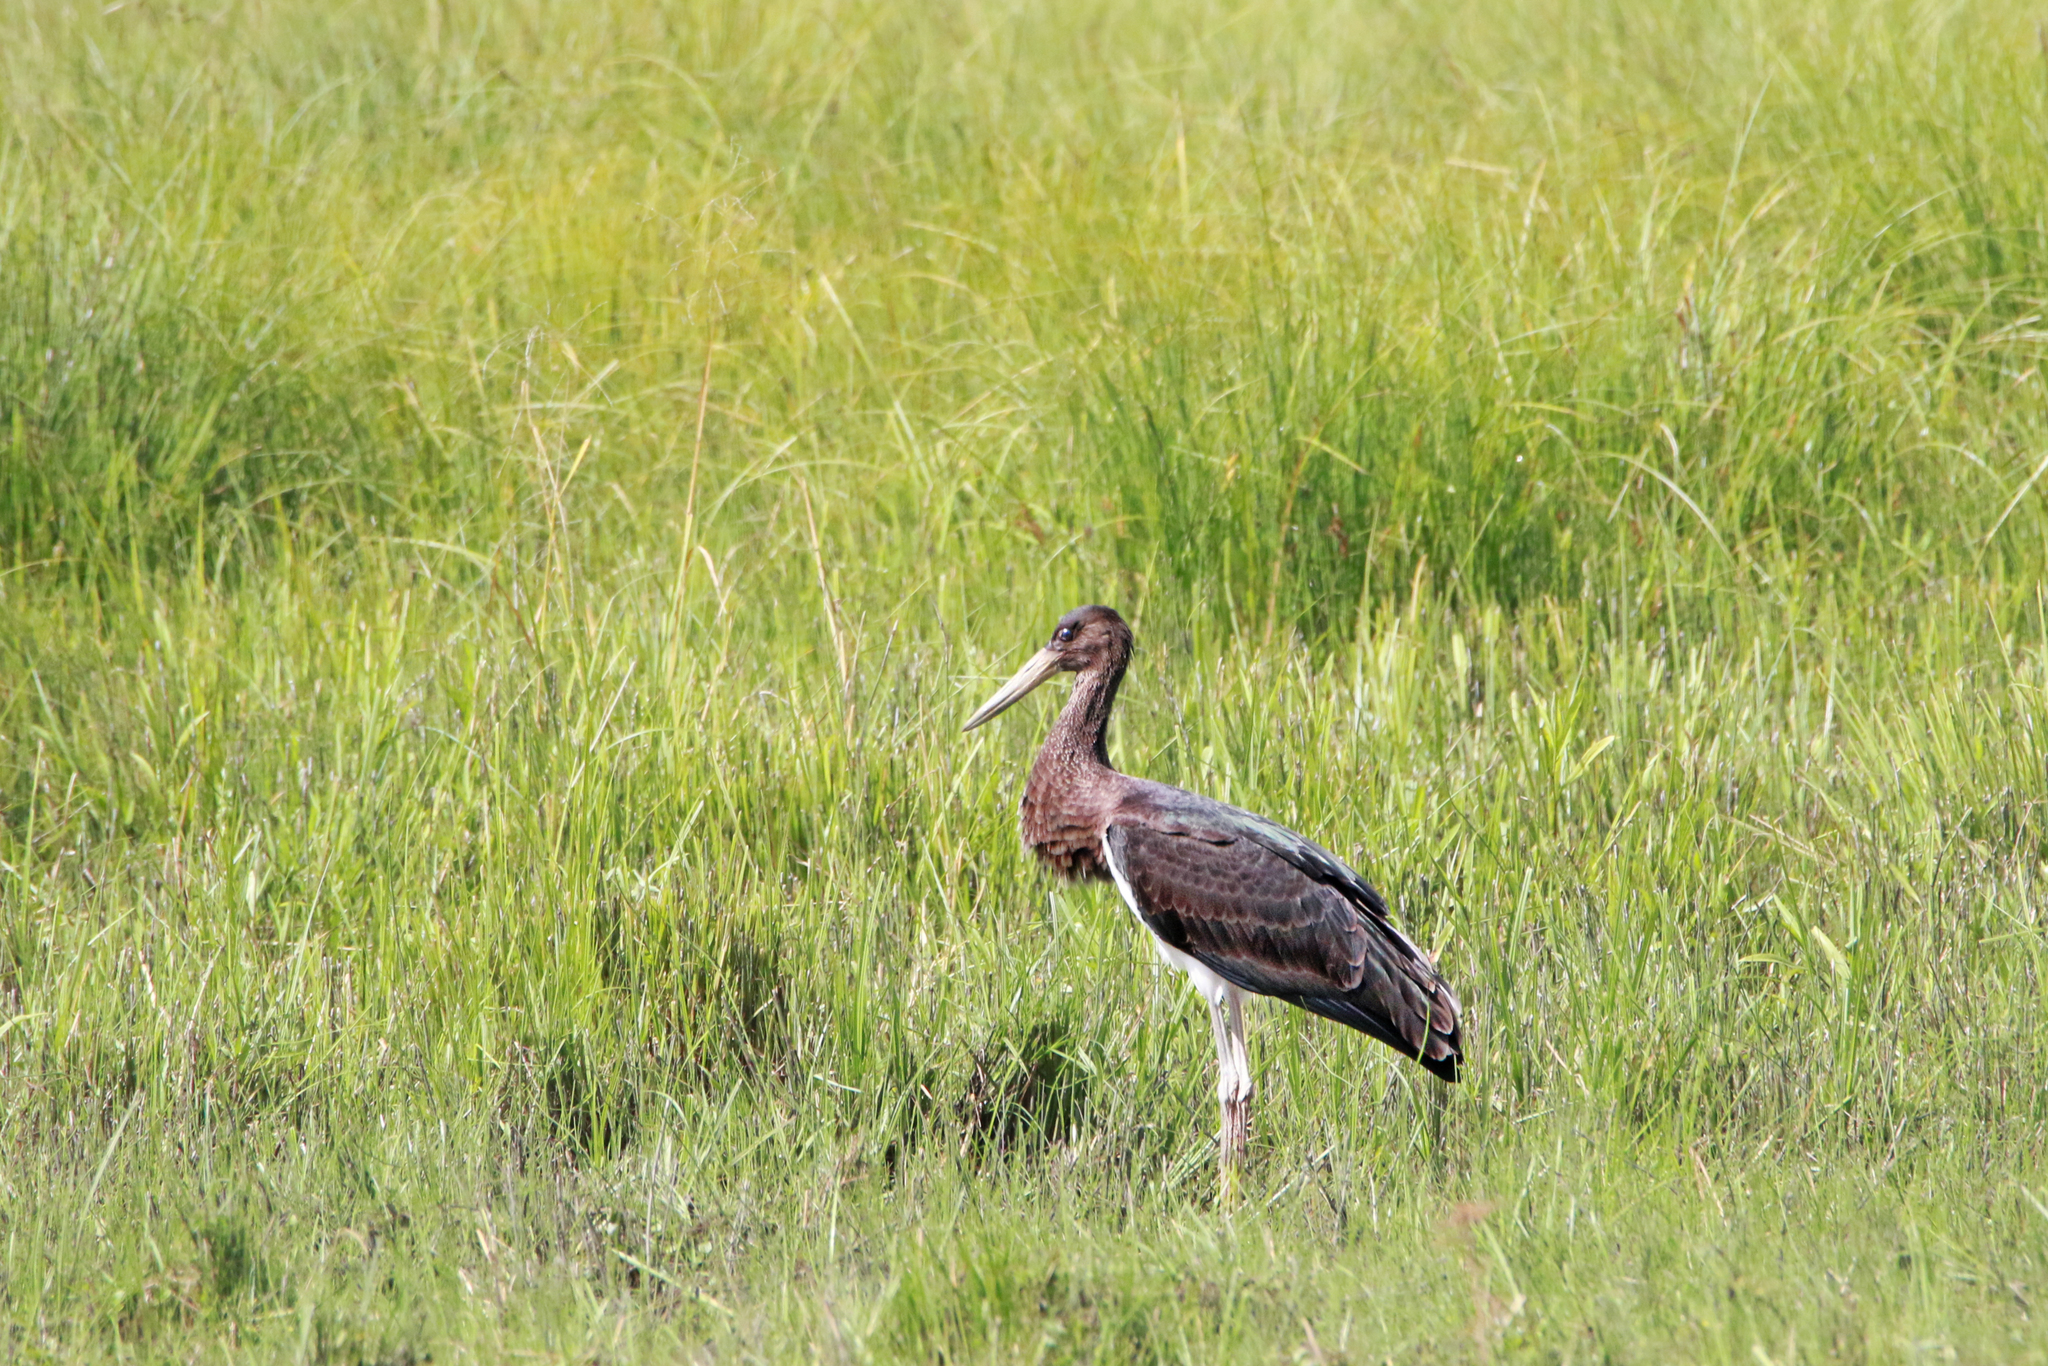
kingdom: Animalia
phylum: Chordata
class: Aves
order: Ciconiiformes
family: Ciconiidae
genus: Ciconia
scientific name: Ciconia nigra
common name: Black stork
